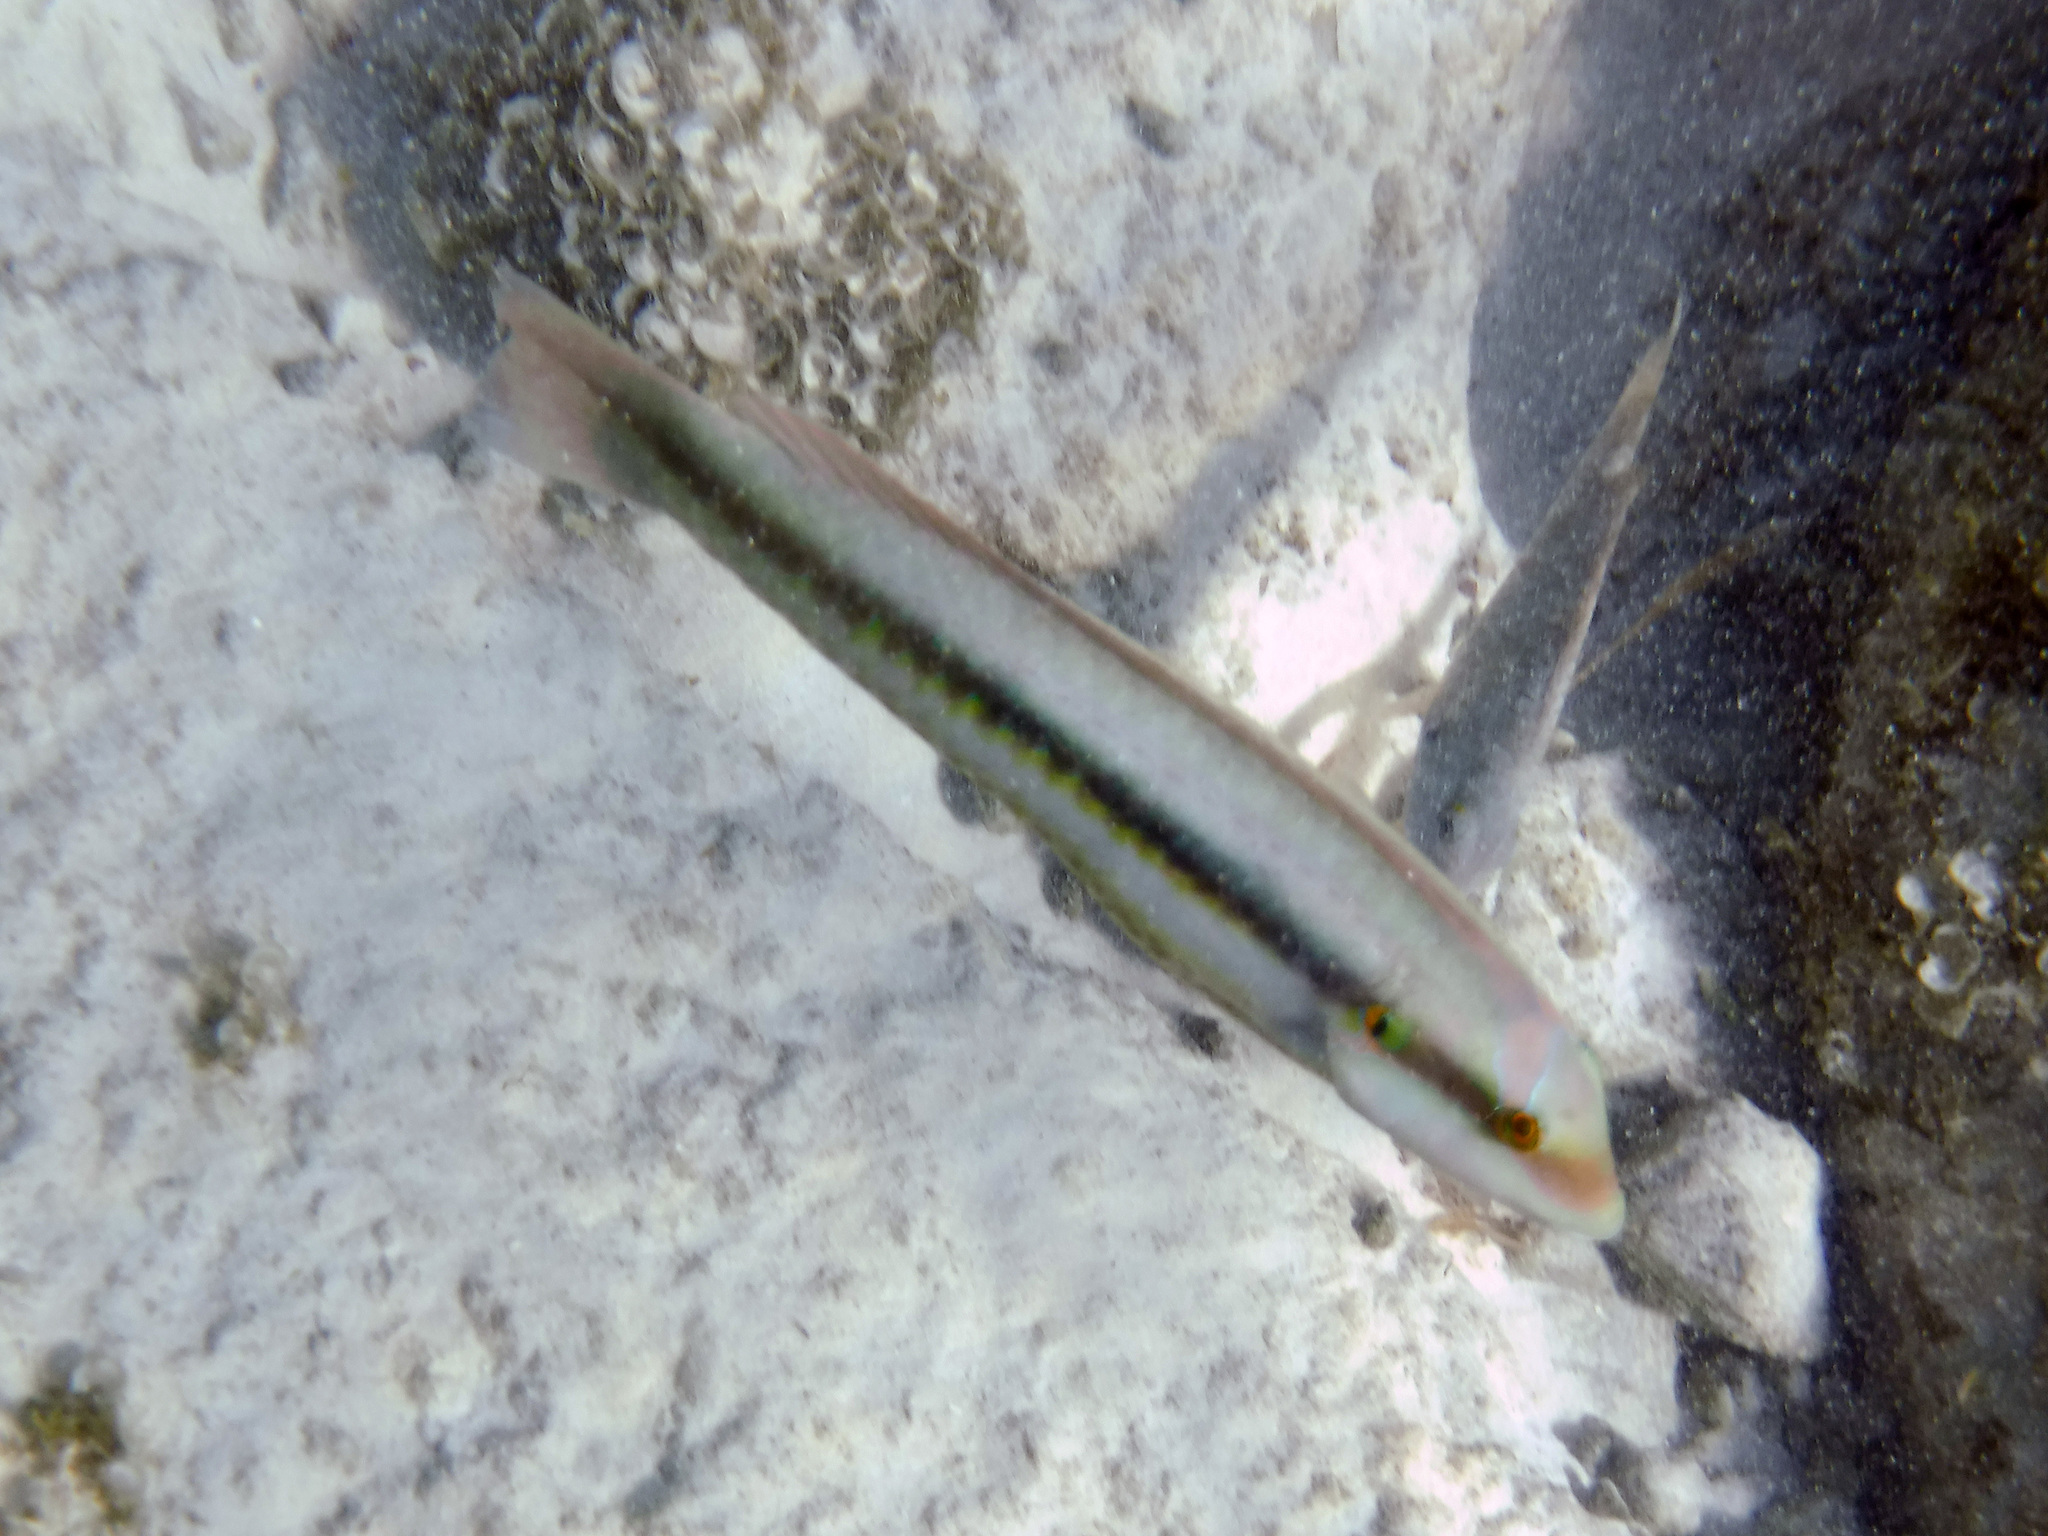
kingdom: Animalia
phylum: Chordata
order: Perciformes
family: Labridae
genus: Halichoeres
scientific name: Halichoeres bivittatus
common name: Slippery dick
